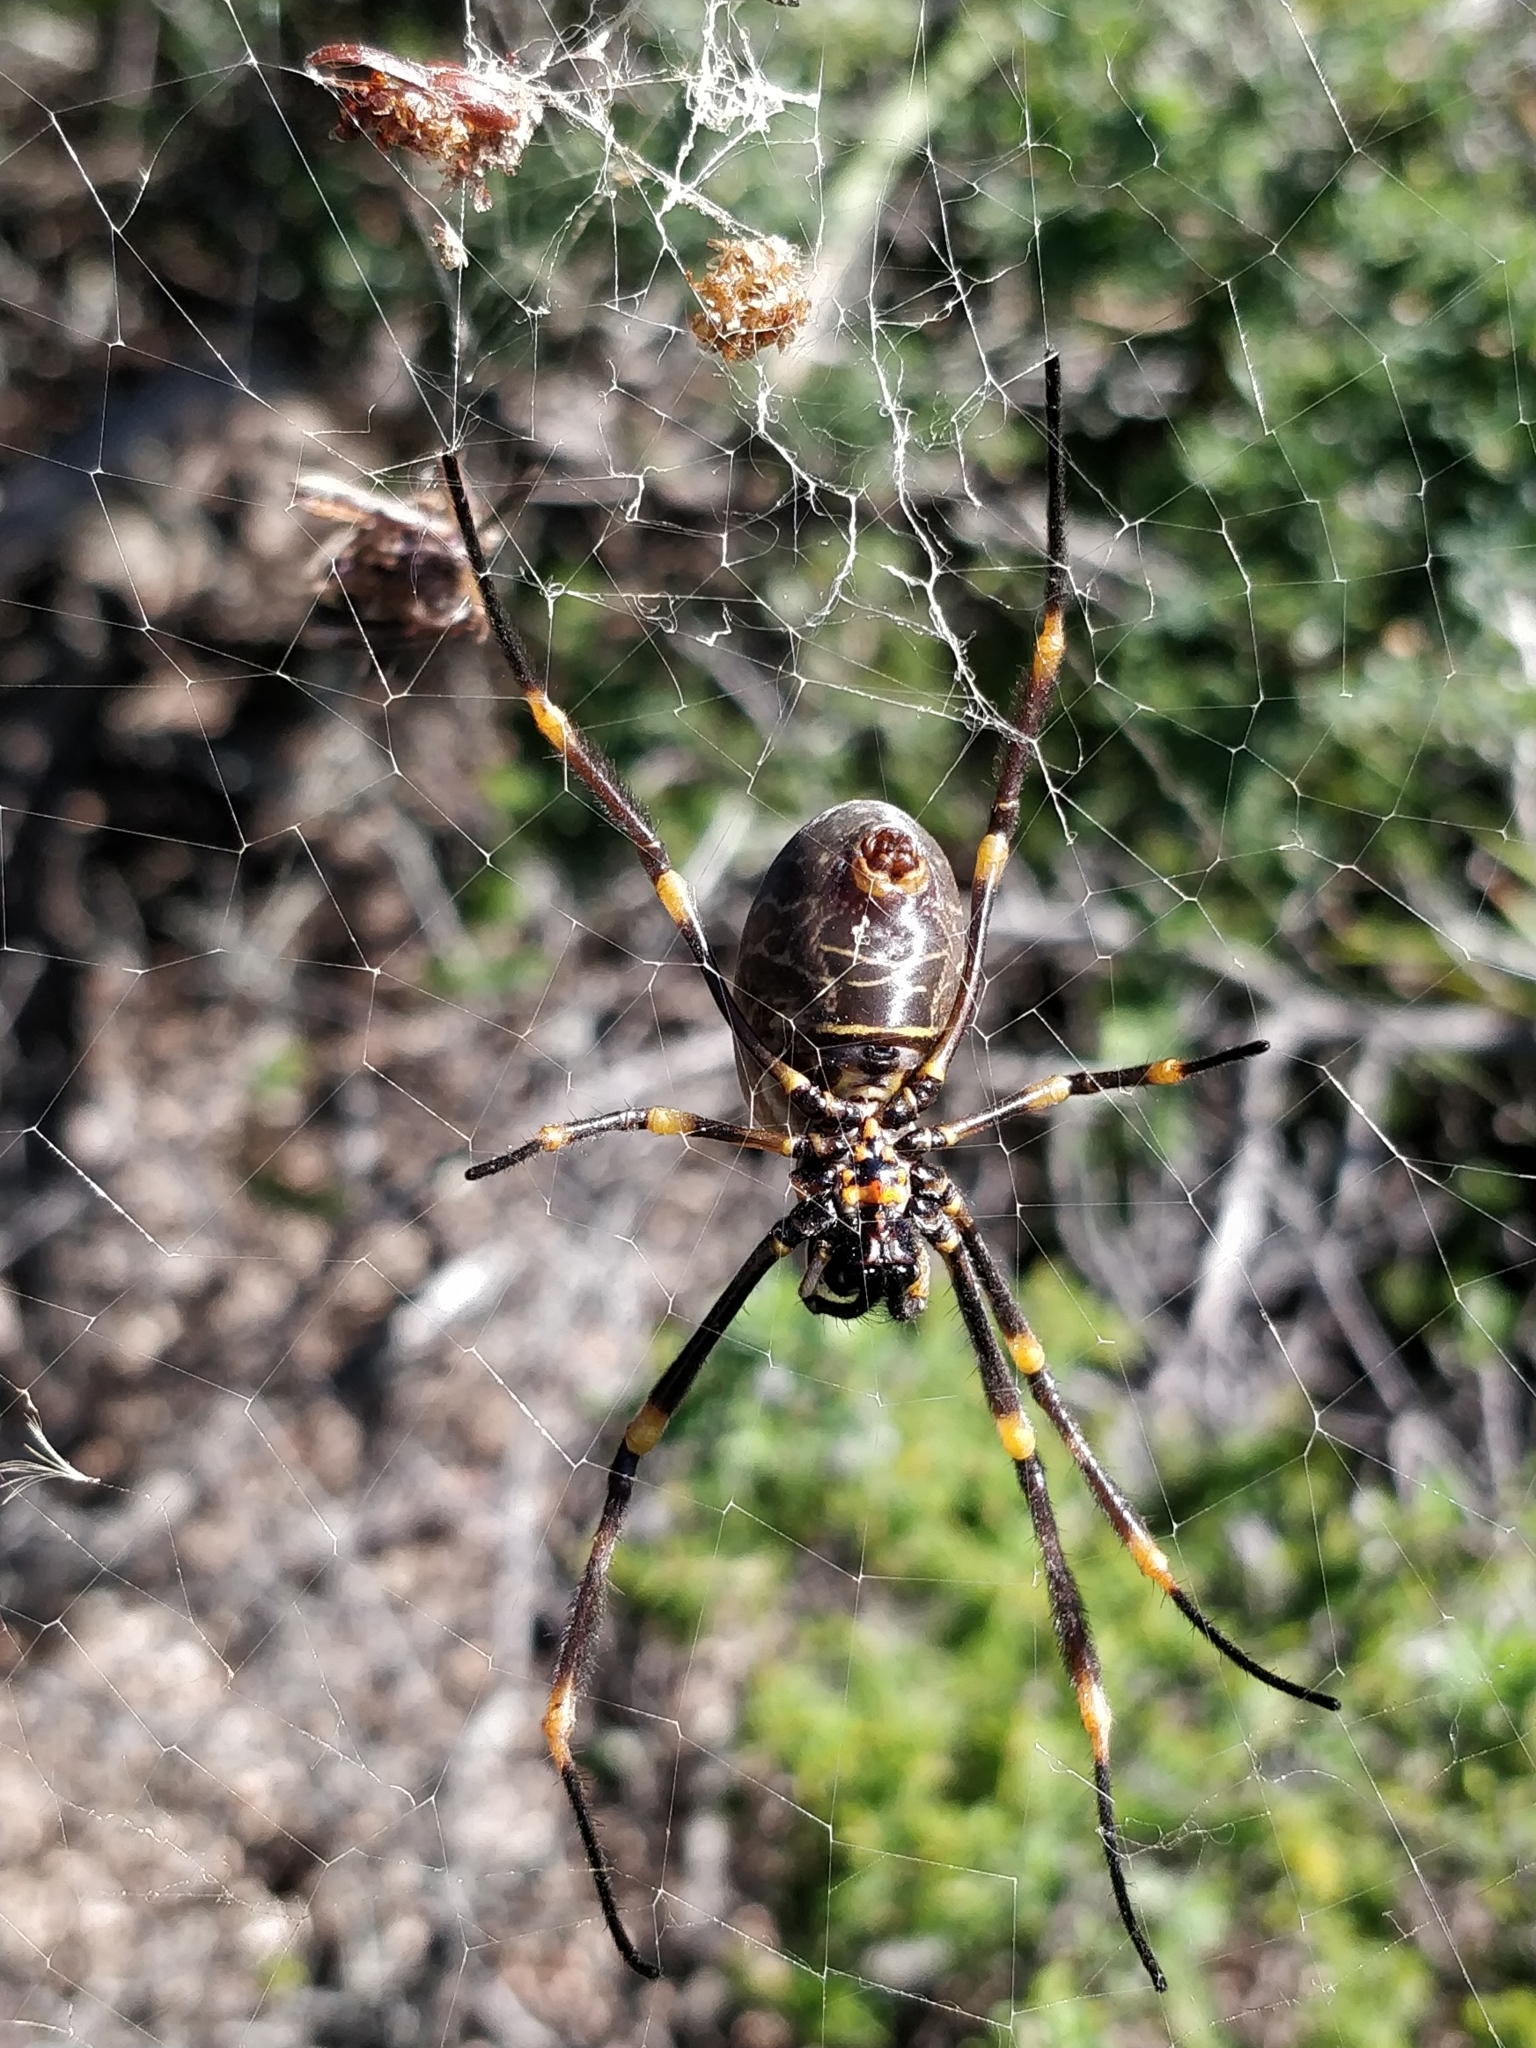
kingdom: Animalia
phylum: Arthropoda
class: Arachnida
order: Araneae
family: Araneidae
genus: Trichonephila
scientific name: Trichonephila plumipes
